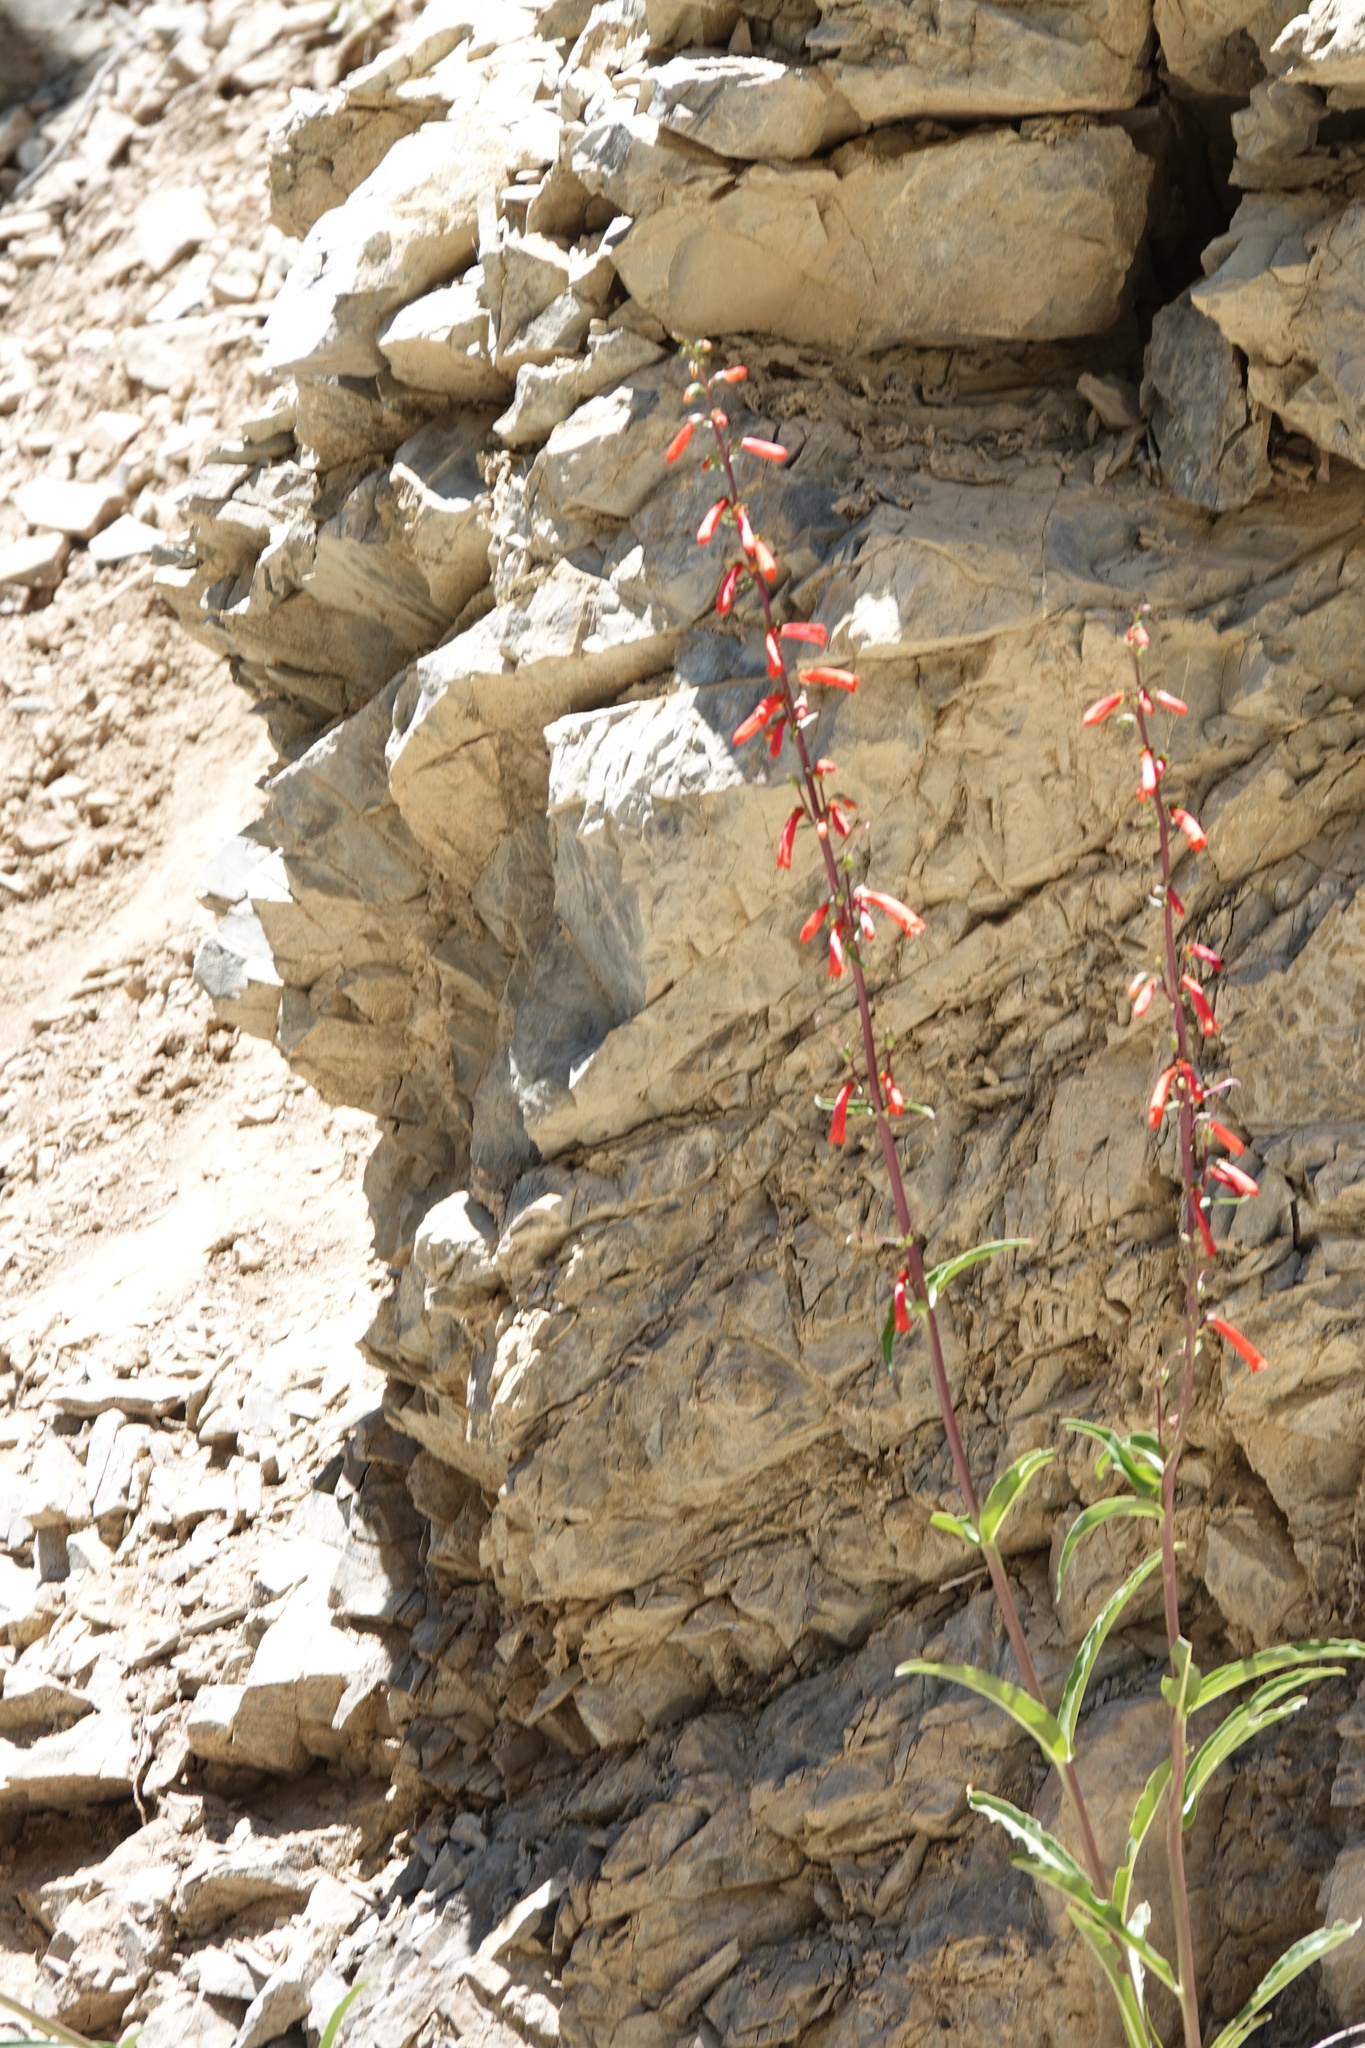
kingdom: Plantae
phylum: Tracheophyta
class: Magnoliopsida
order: Lamiales
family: Plantaginaceae
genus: Penstemon
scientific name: Penstemon eatonii
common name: Eaton's penstemon
